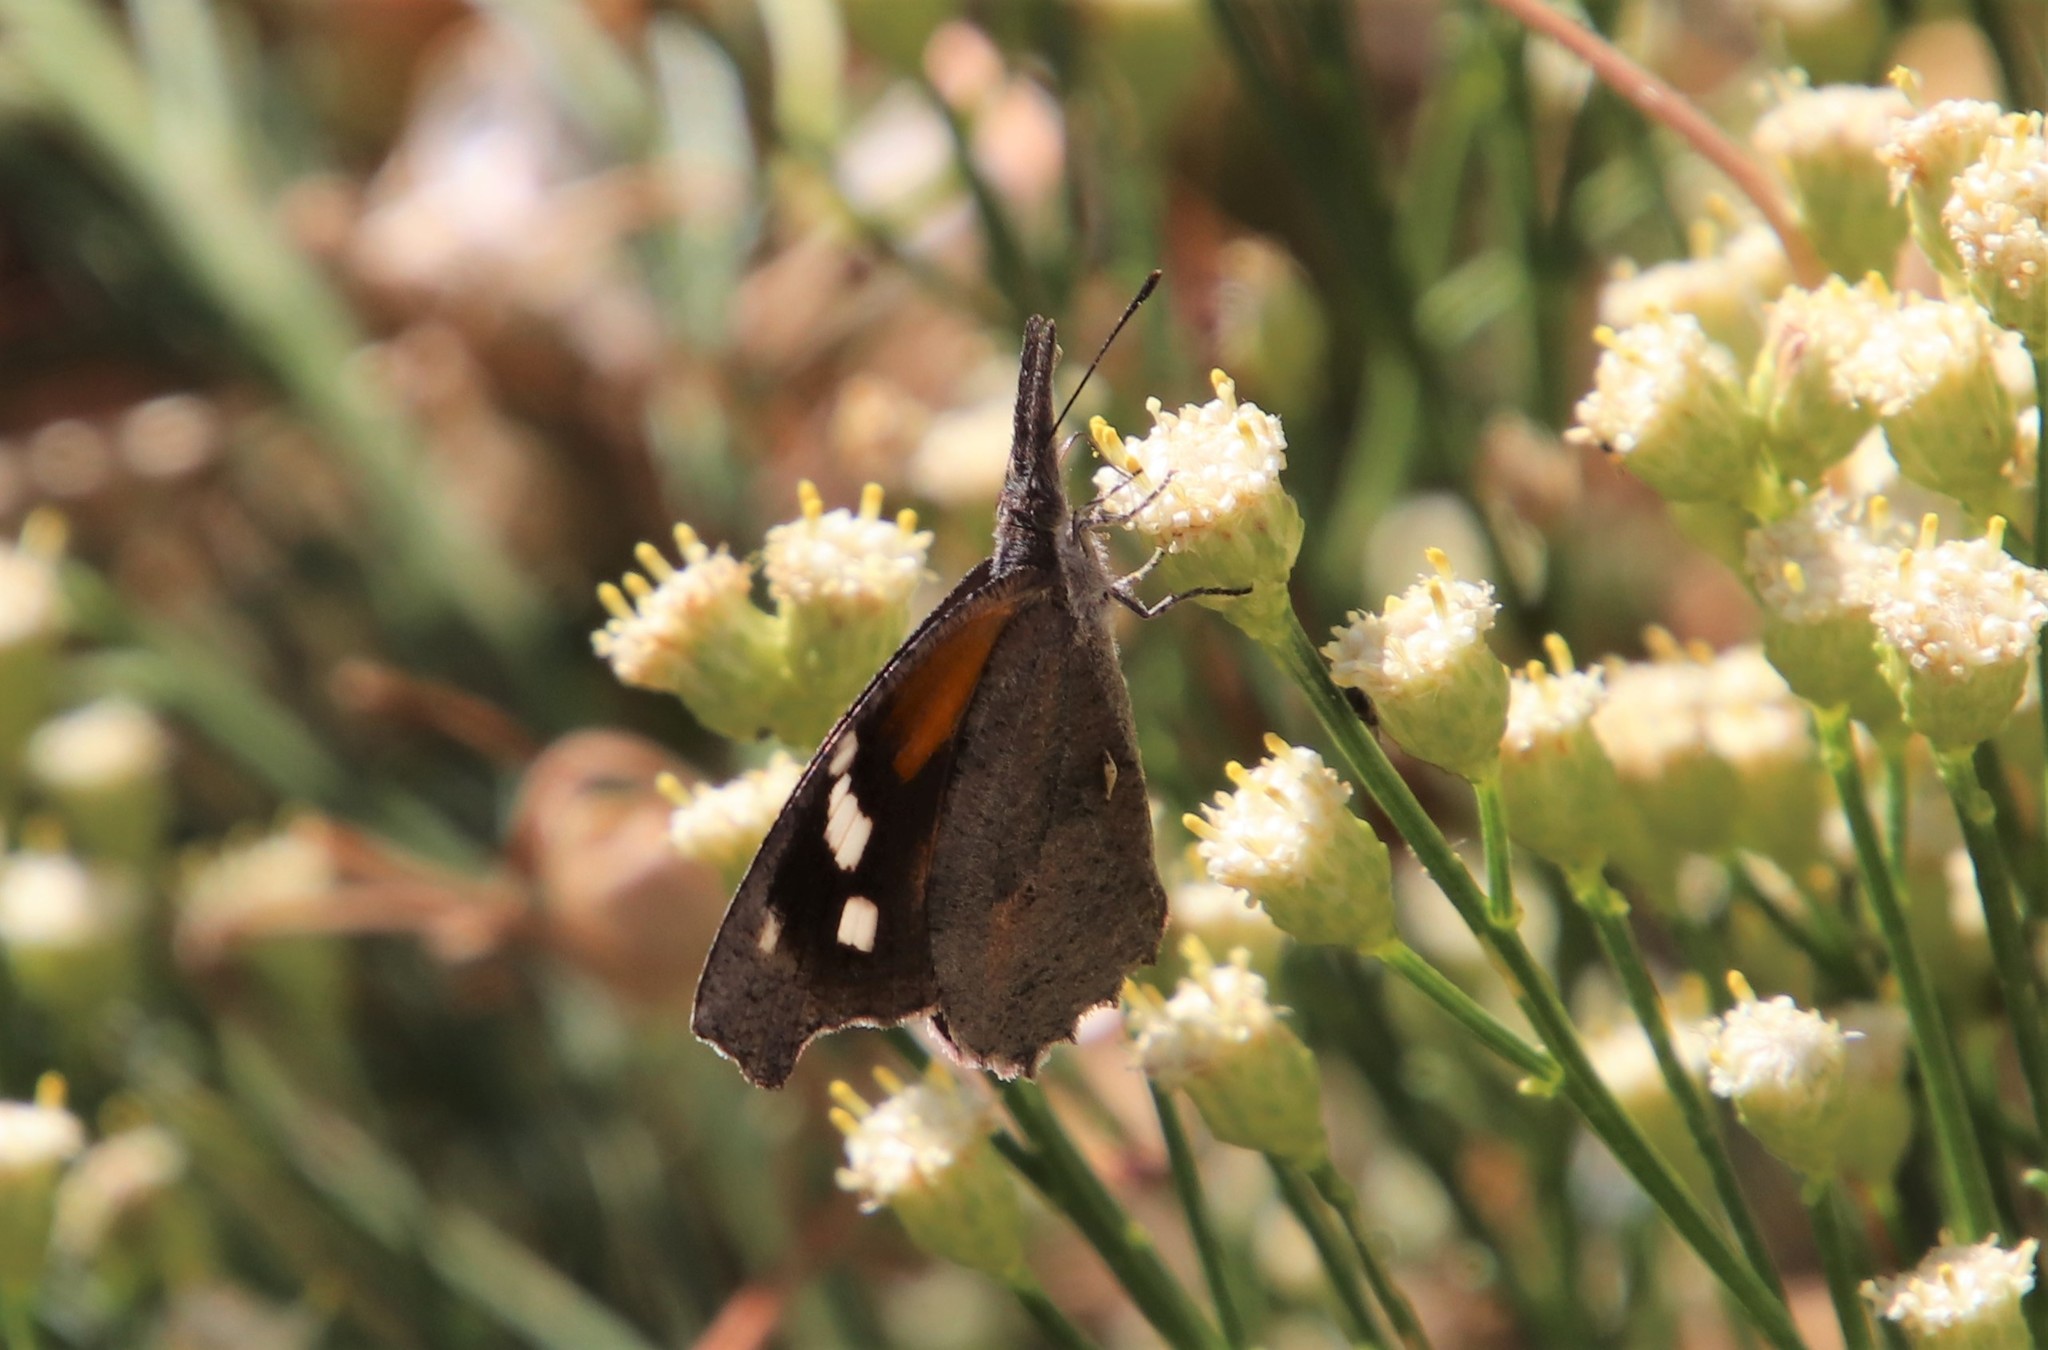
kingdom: Animalia
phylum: Arthropoda
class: Insecta
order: Lepidoptera
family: Nymphalidae
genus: Libytheana
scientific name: Libytheana carinenta
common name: American snout
